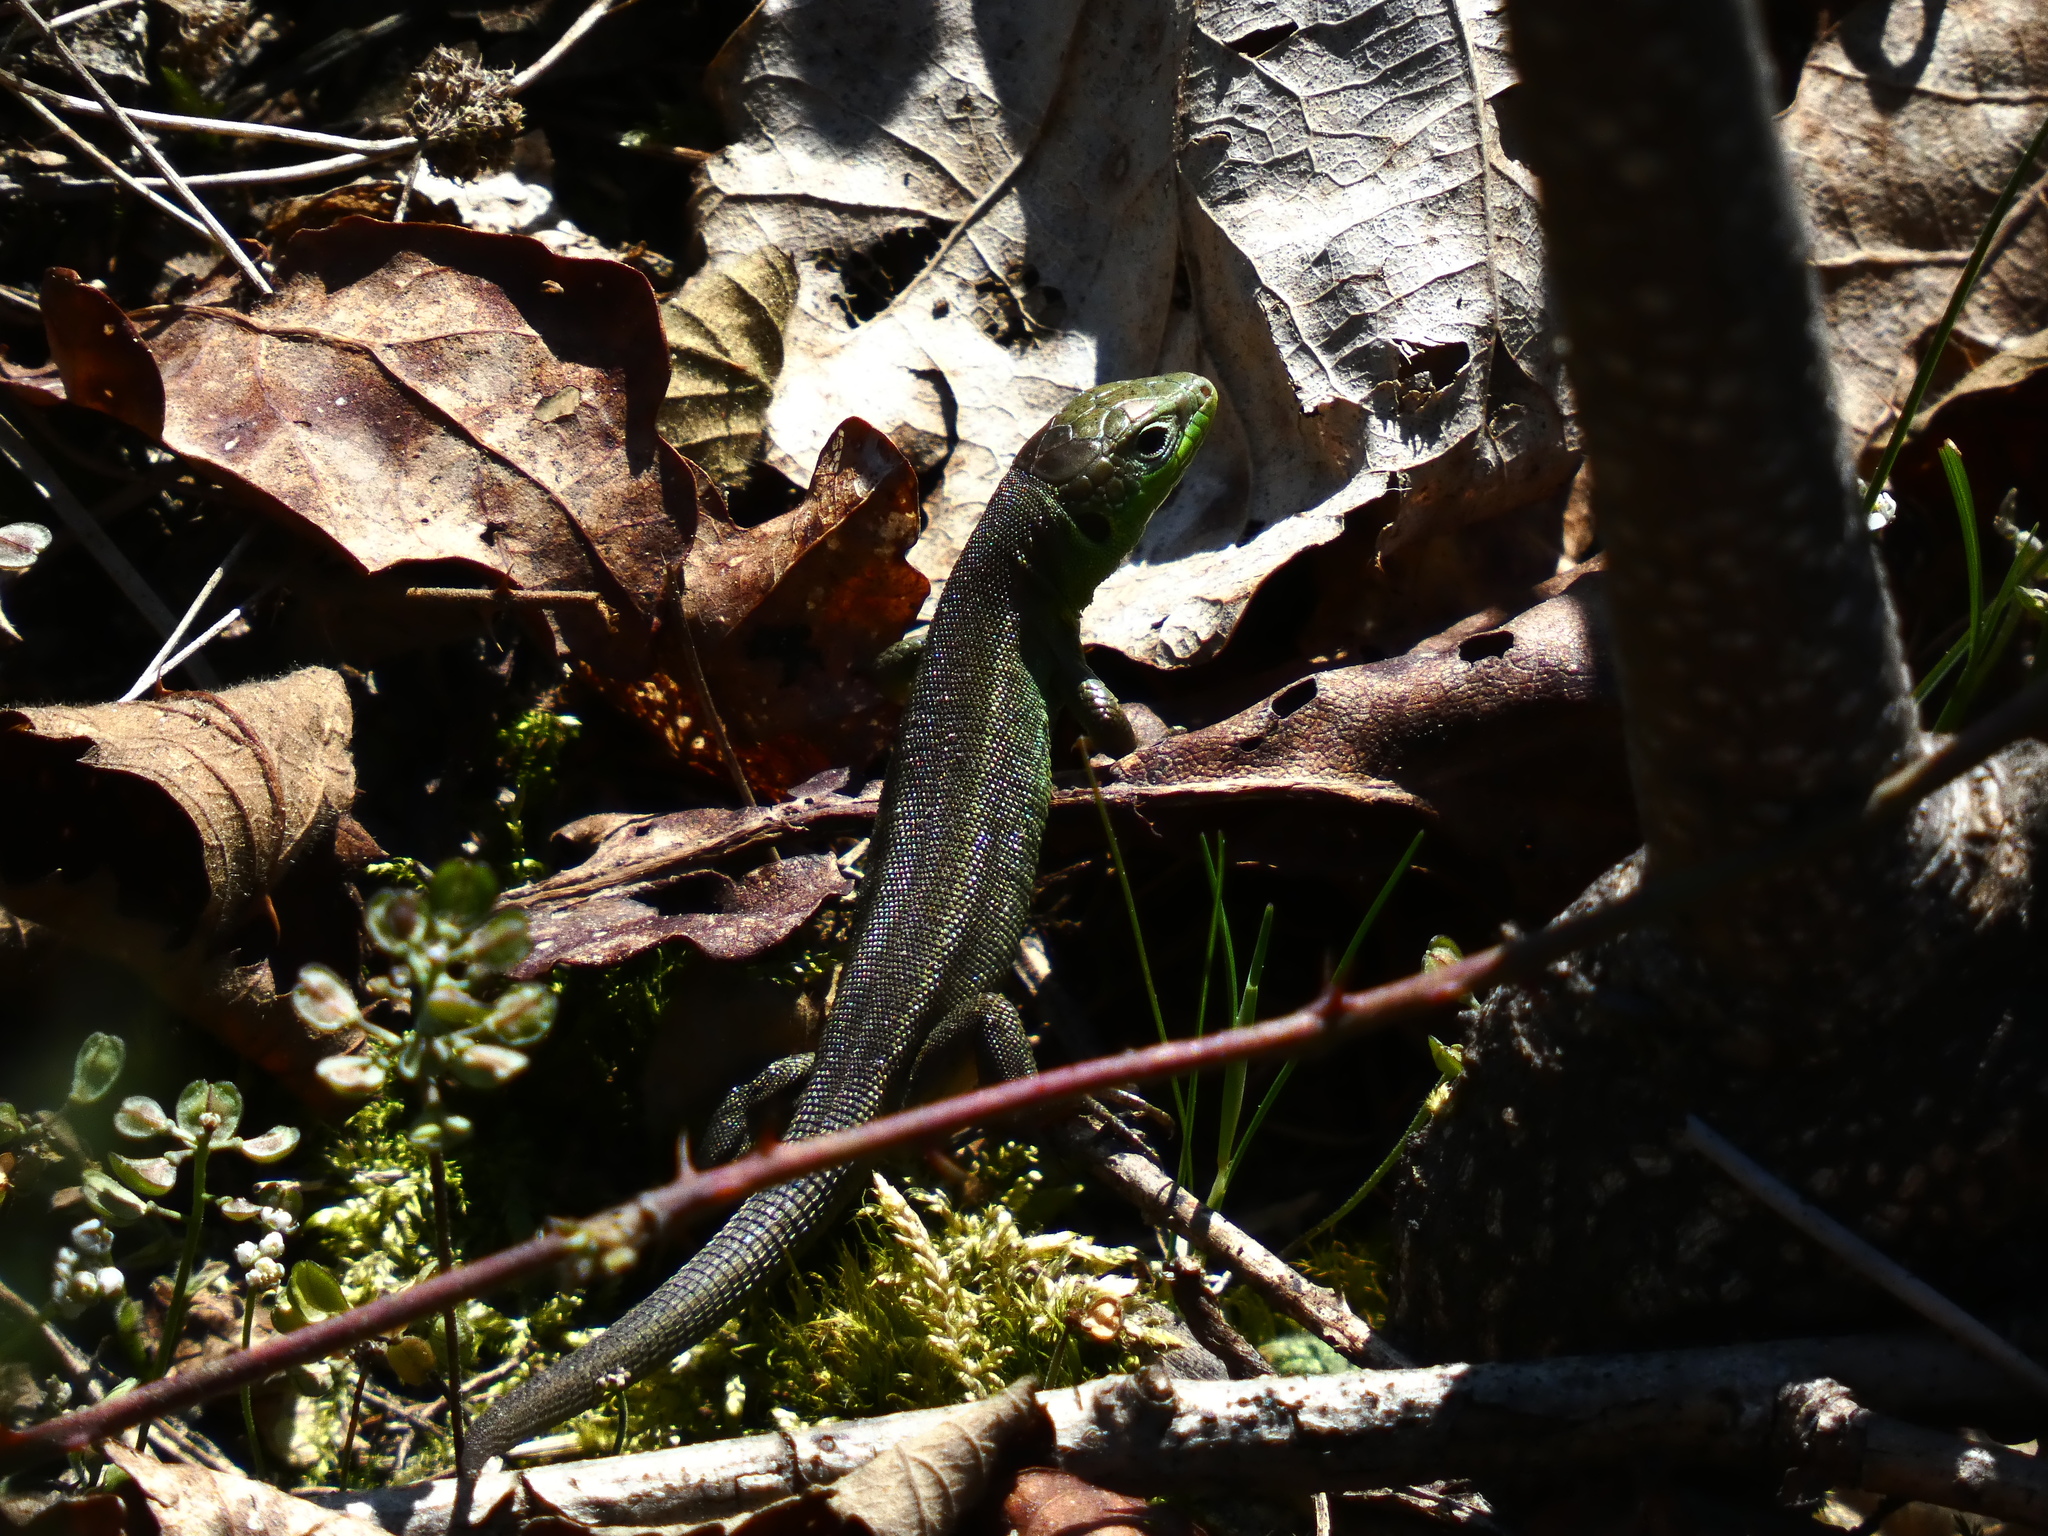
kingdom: Animalia
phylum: Chordata
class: Squamata
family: Lacertidae
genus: Lacerta
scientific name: Lacerta bilineata
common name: Western green lizard
